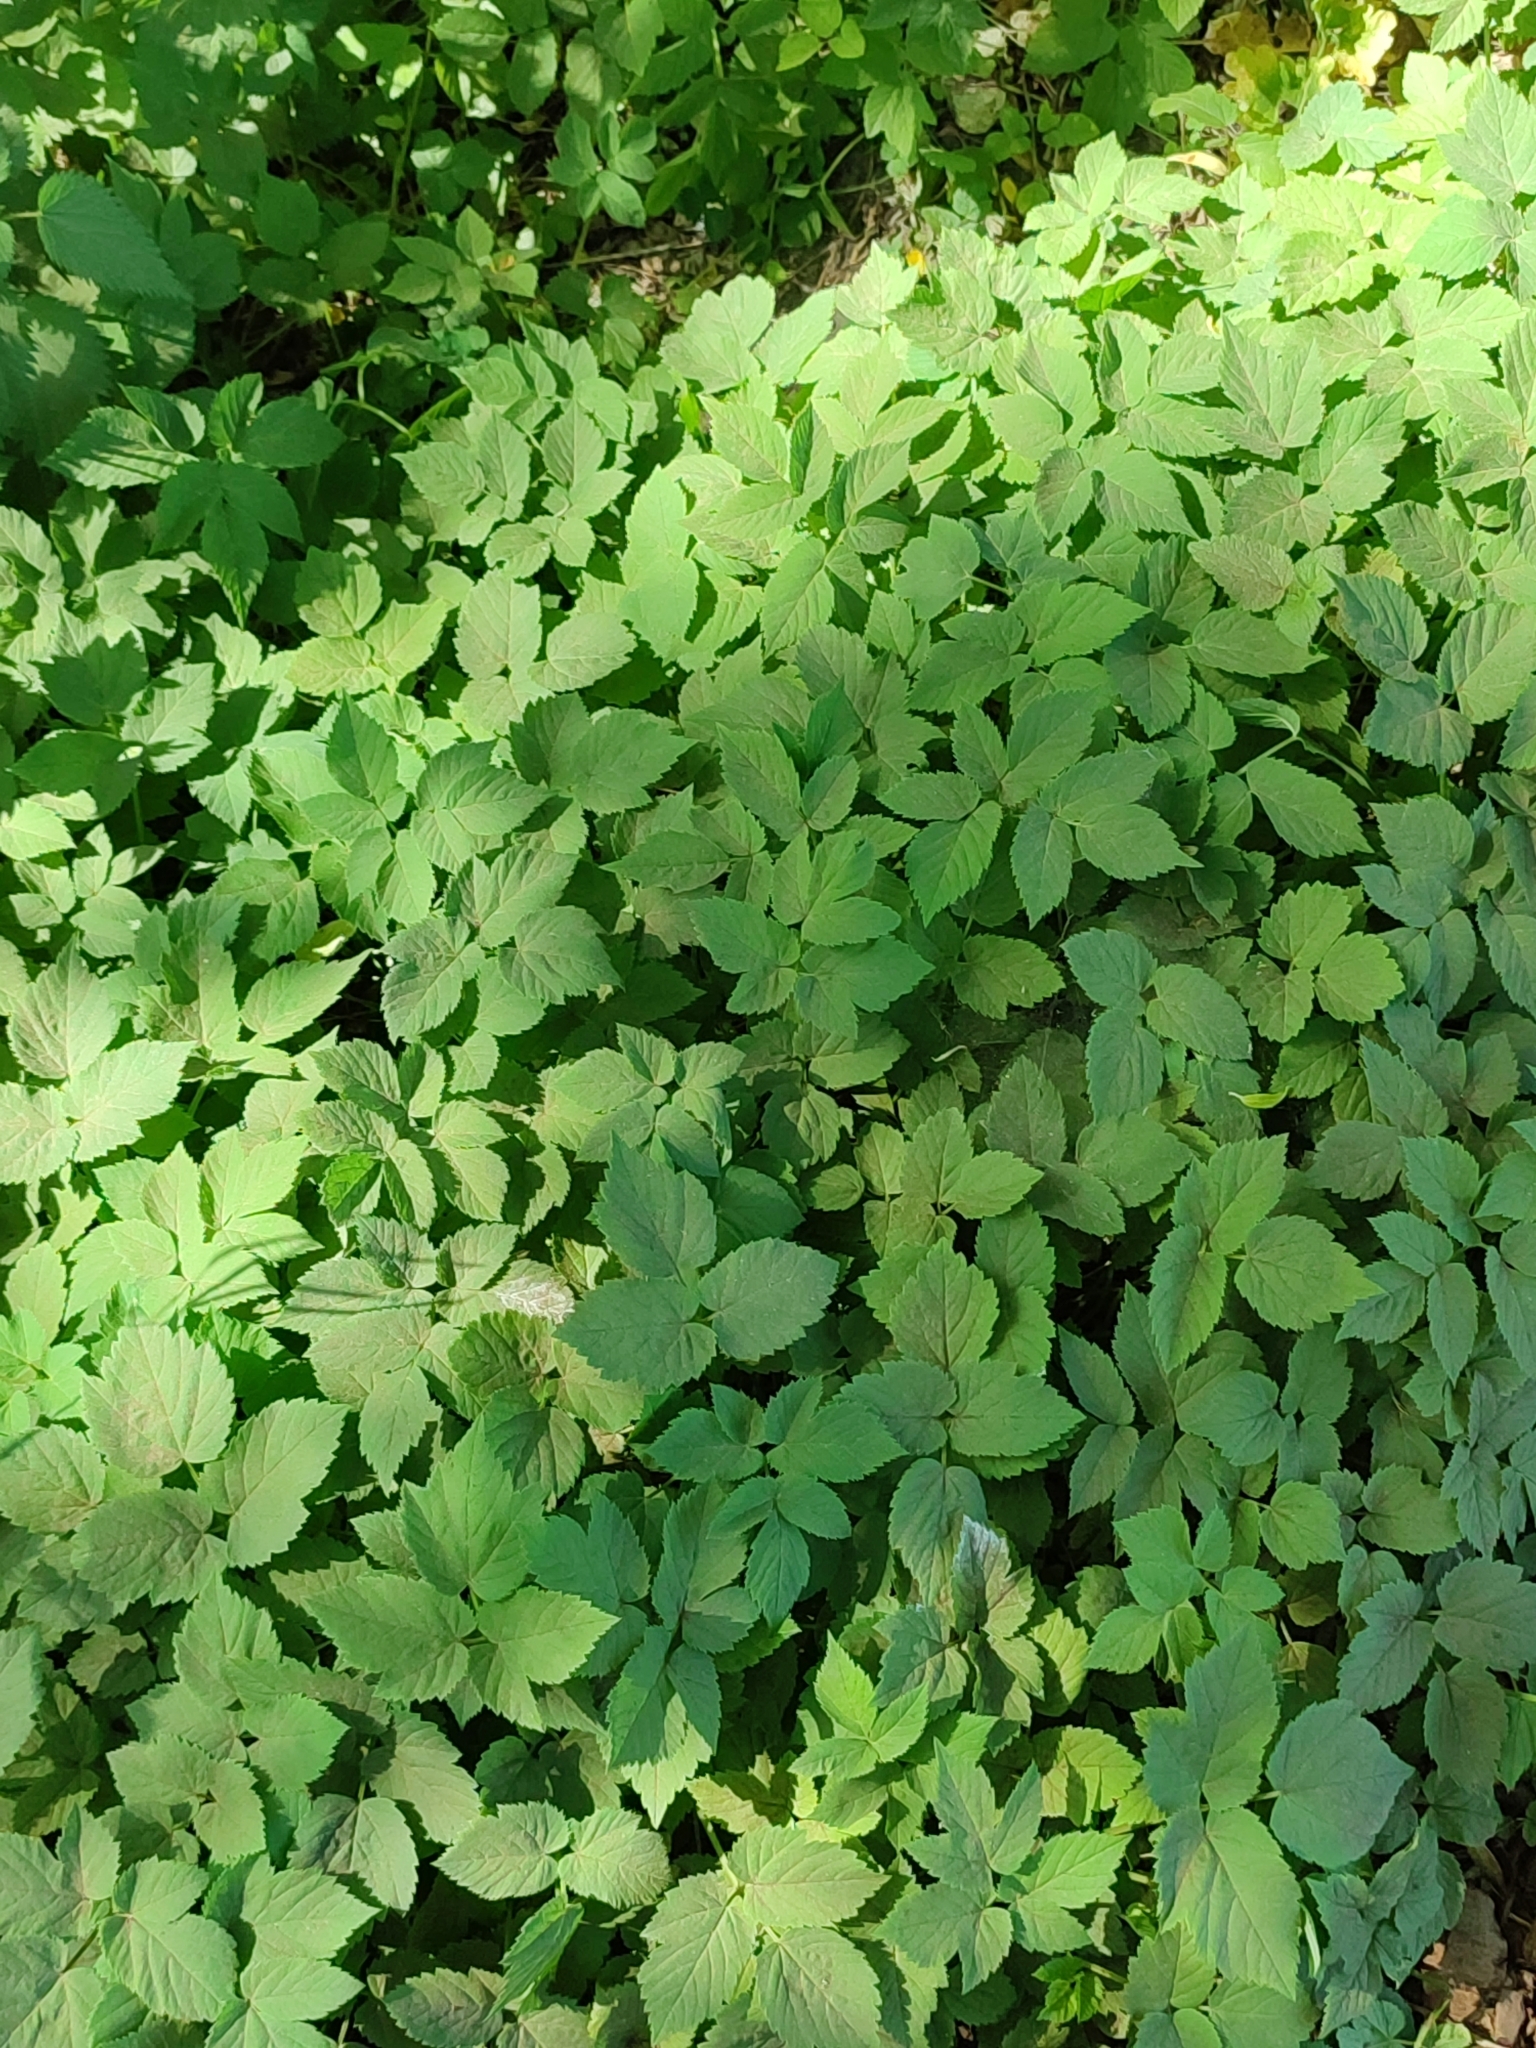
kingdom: Plantae
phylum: Tracheophyta
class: Magnoliopsida
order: Apiales
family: Apiaceae
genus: Aegopodium
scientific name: Aegopodium podagraria
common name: Ground-elder
